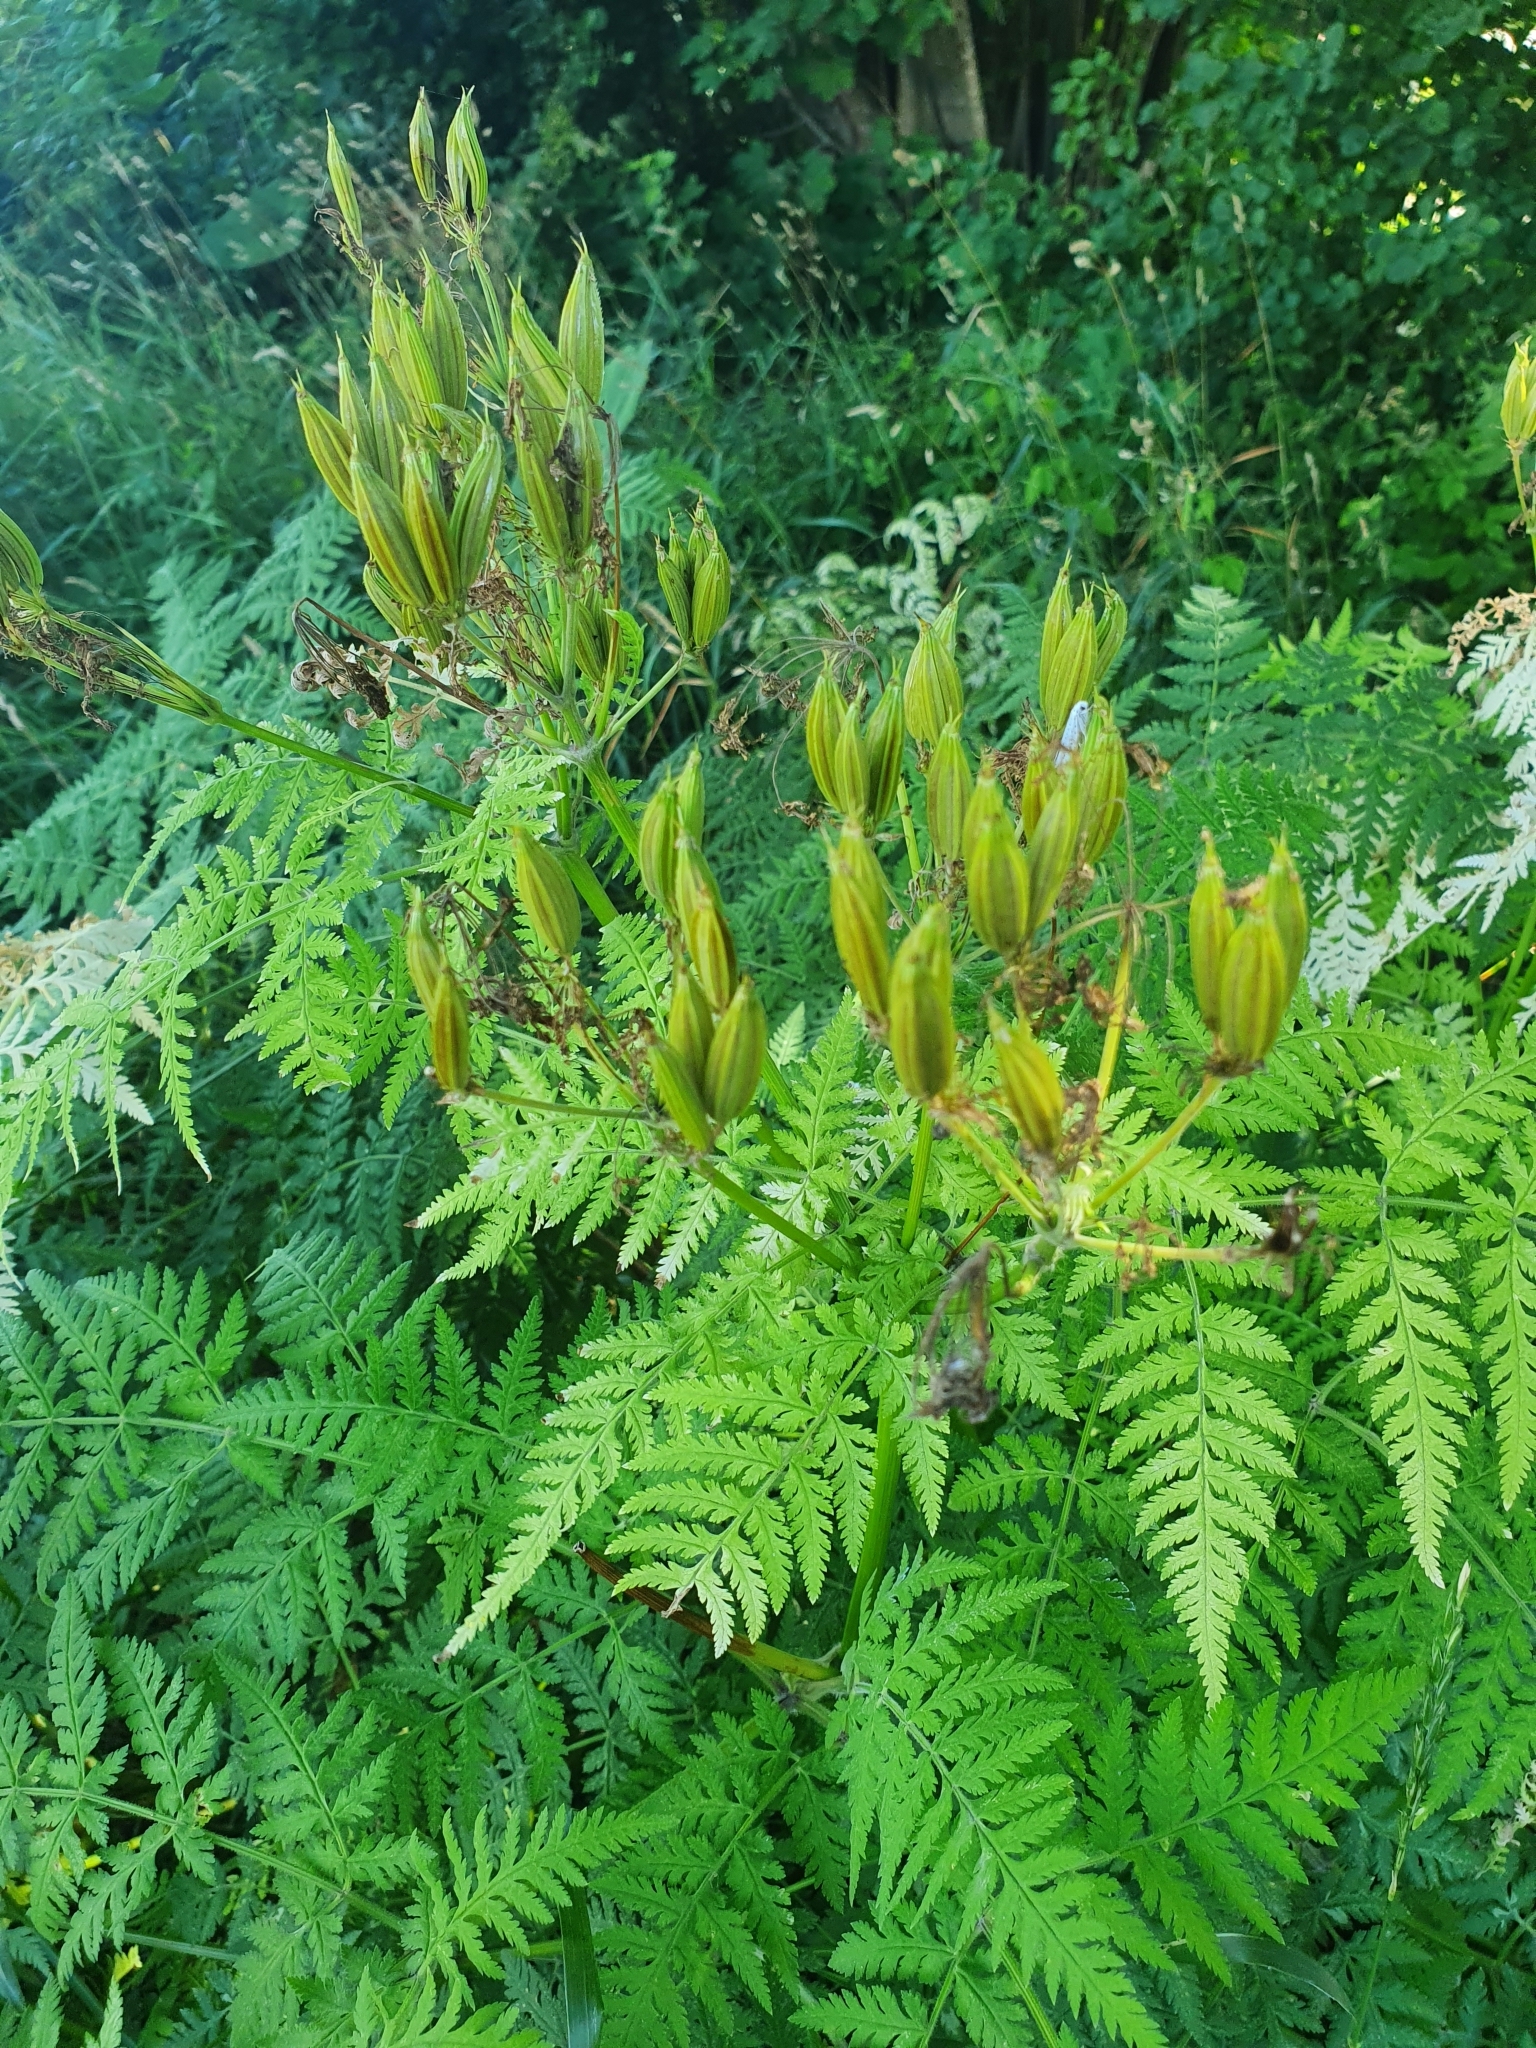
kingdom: Plantae
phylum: Tracheophyta
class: Magnoliopsida
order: Apiales
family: Apiaceae
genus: Myrrhis
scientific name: Myrrhis odorata
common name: Sweet cicely
